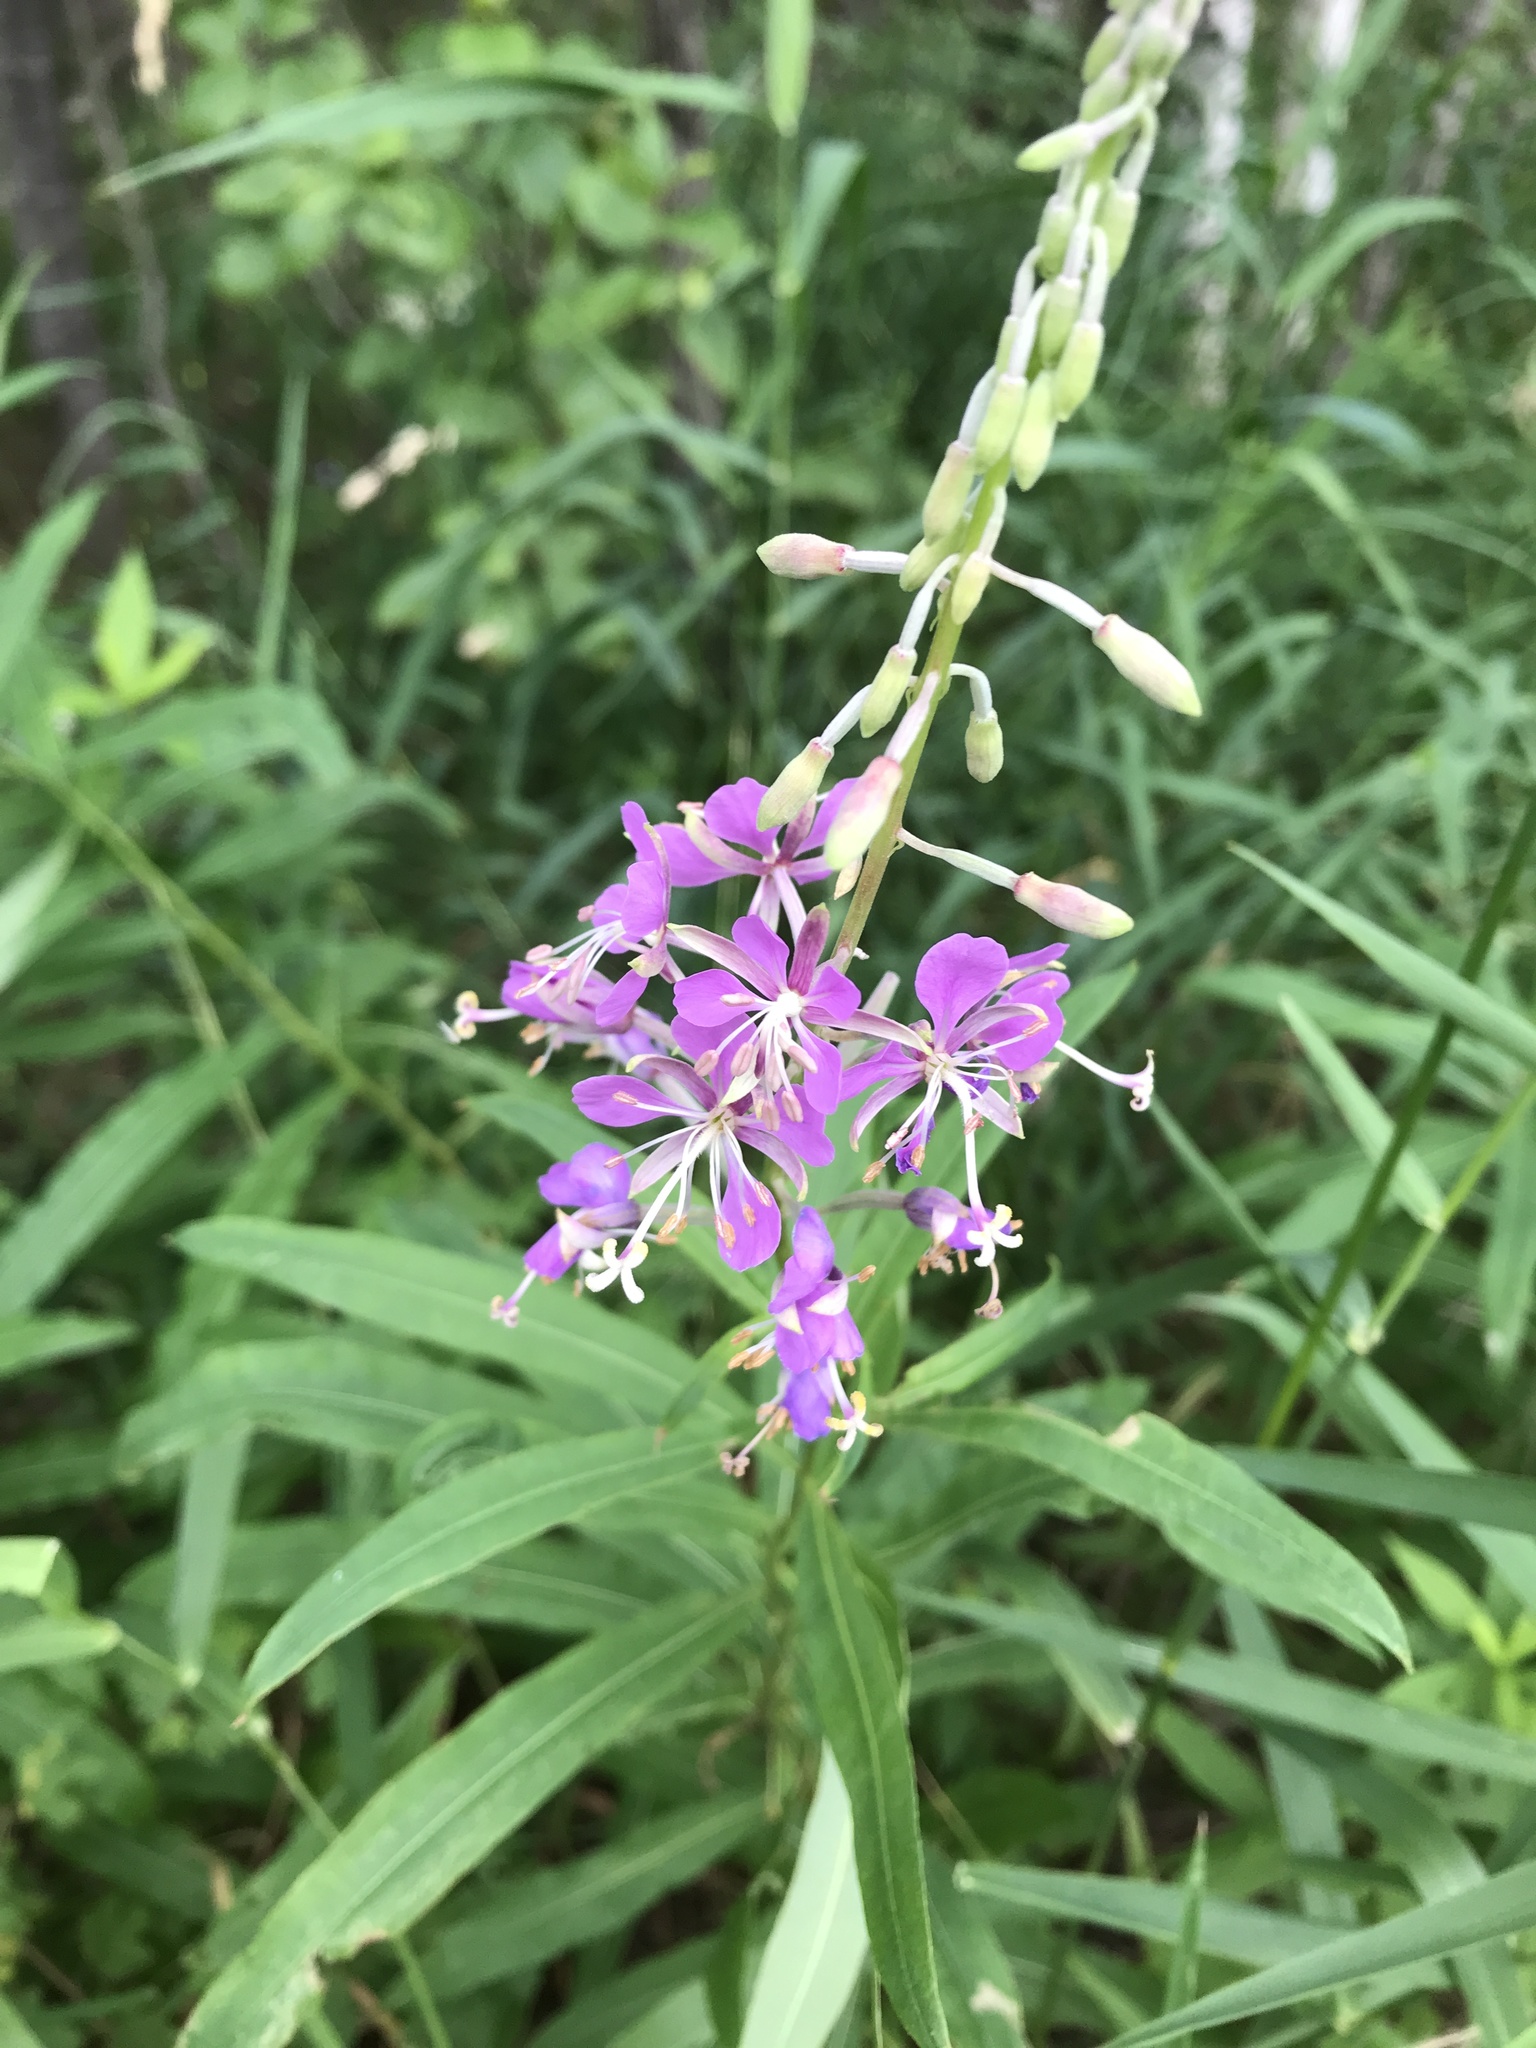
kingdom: Plantae
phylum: Tracheophyta
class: Magnoliopsida
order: Myrtales
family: Onagraceae
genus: Chamaenerion
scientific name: Chamaenerion angustifolium
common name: Fireweed
